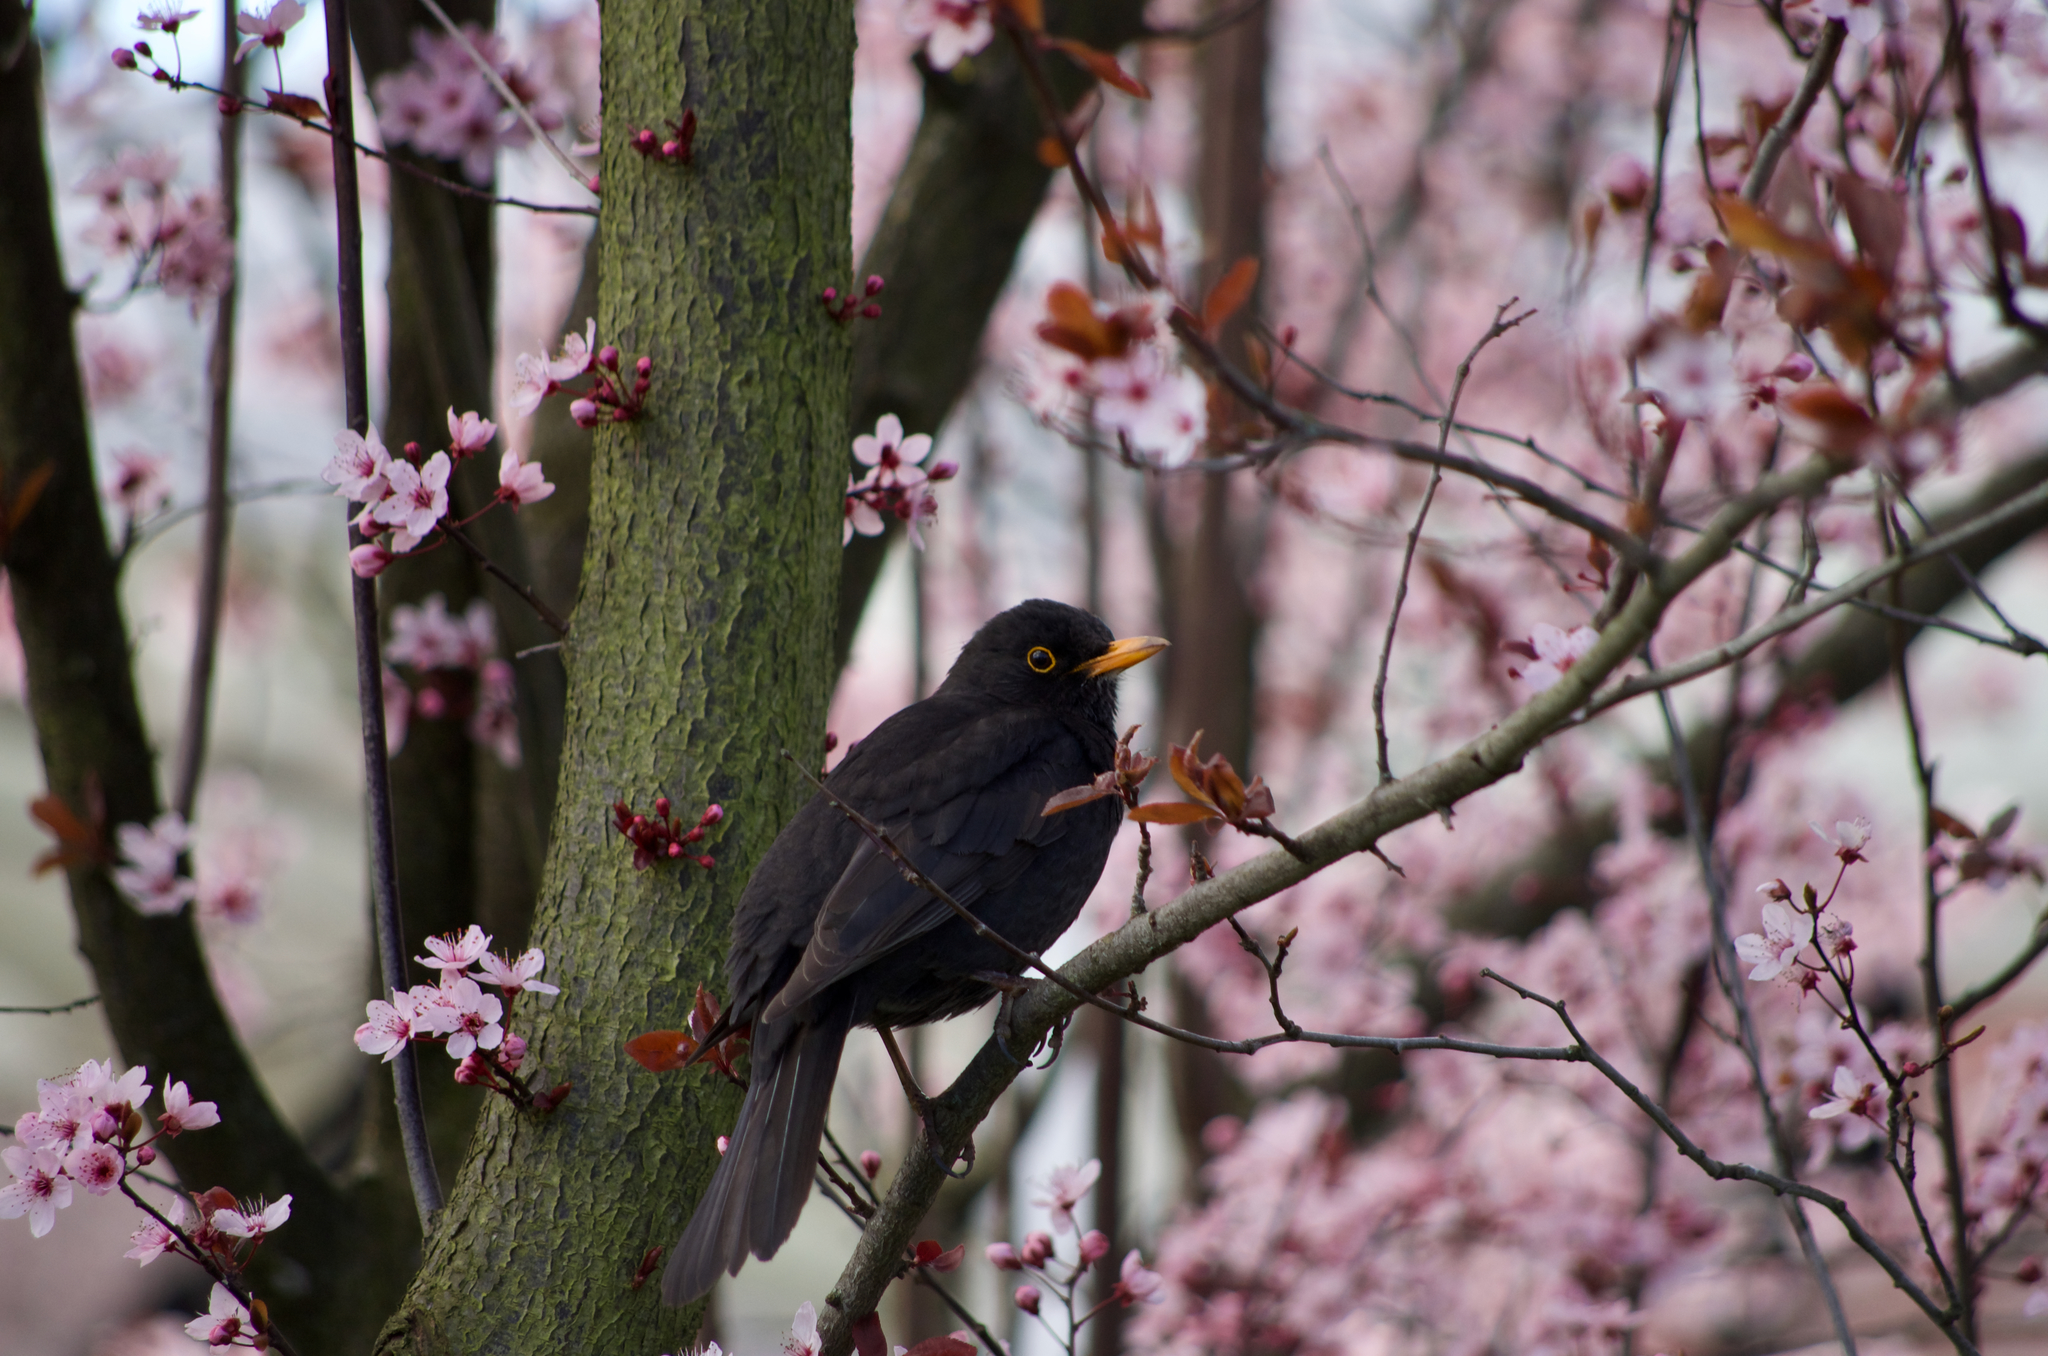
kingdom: Animalia
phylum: Chordata
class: Aves
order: Passeriformes
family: Turdidae
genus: Turdus
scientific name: Turdus merula
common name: Common blackbird
